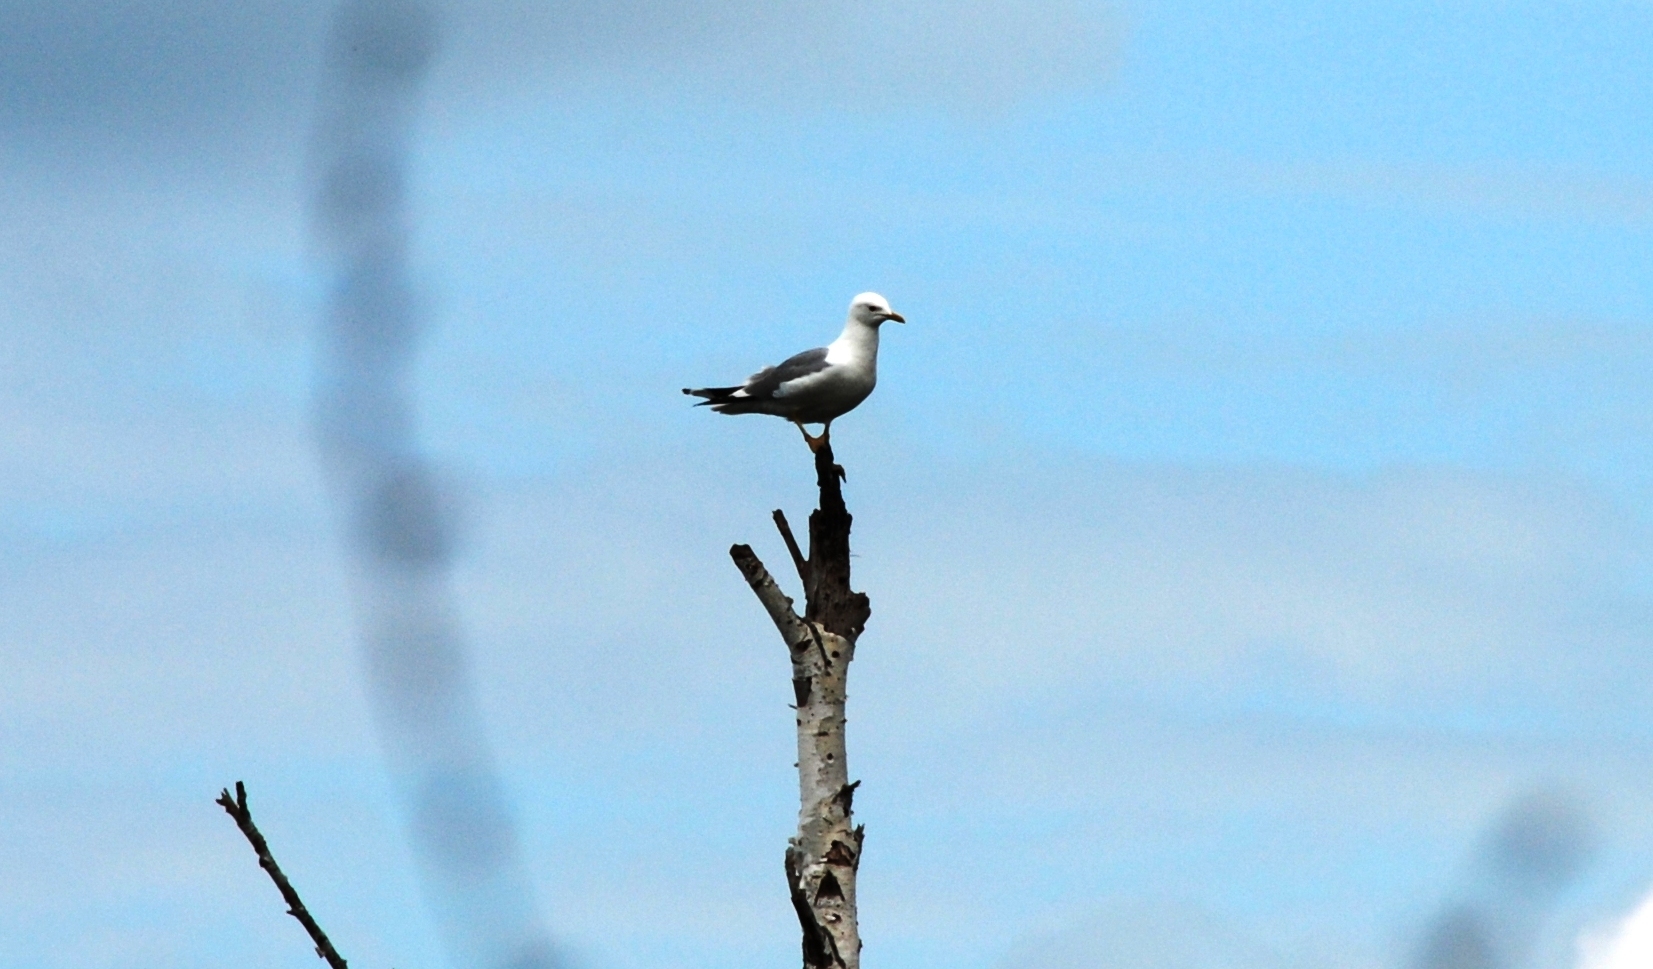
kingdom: Animalia
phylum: Chordata
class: Aves
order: Charadriiformes
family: Laridae
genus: Larus
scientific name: Larus canus
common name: Mew gull
